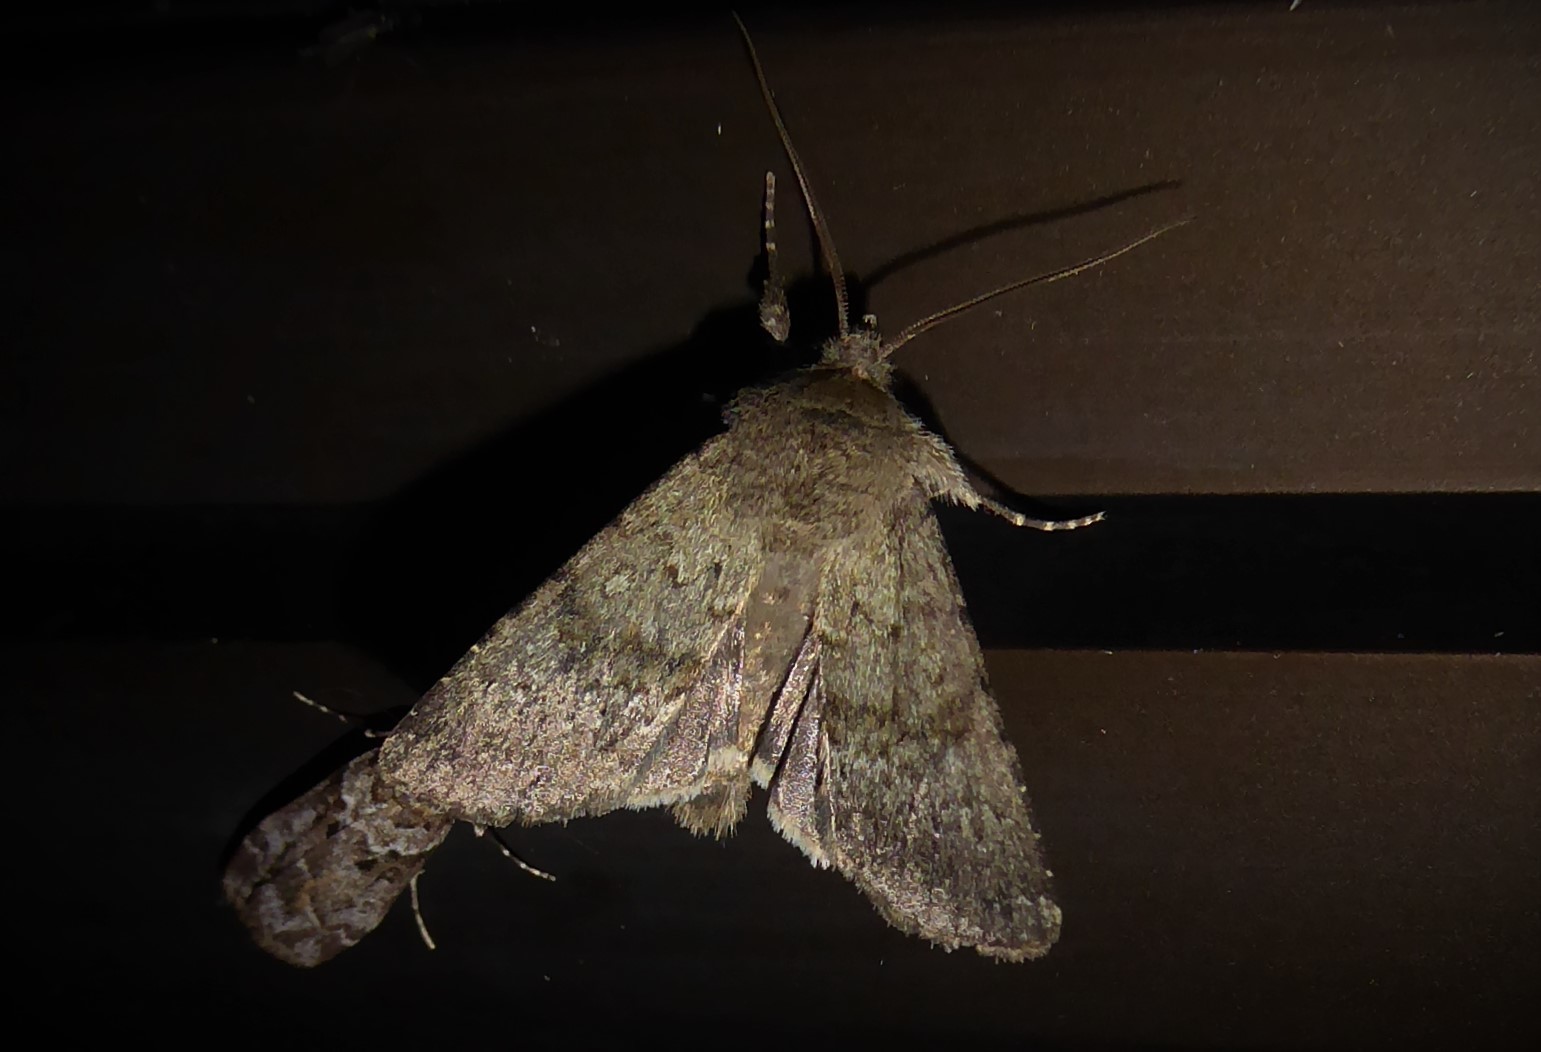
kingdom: Animalia
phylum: Arthropoda
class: Insecta
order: Lepidoptera
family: Noctuidae
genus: Ichneutica
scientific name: Ichneutica moderata
